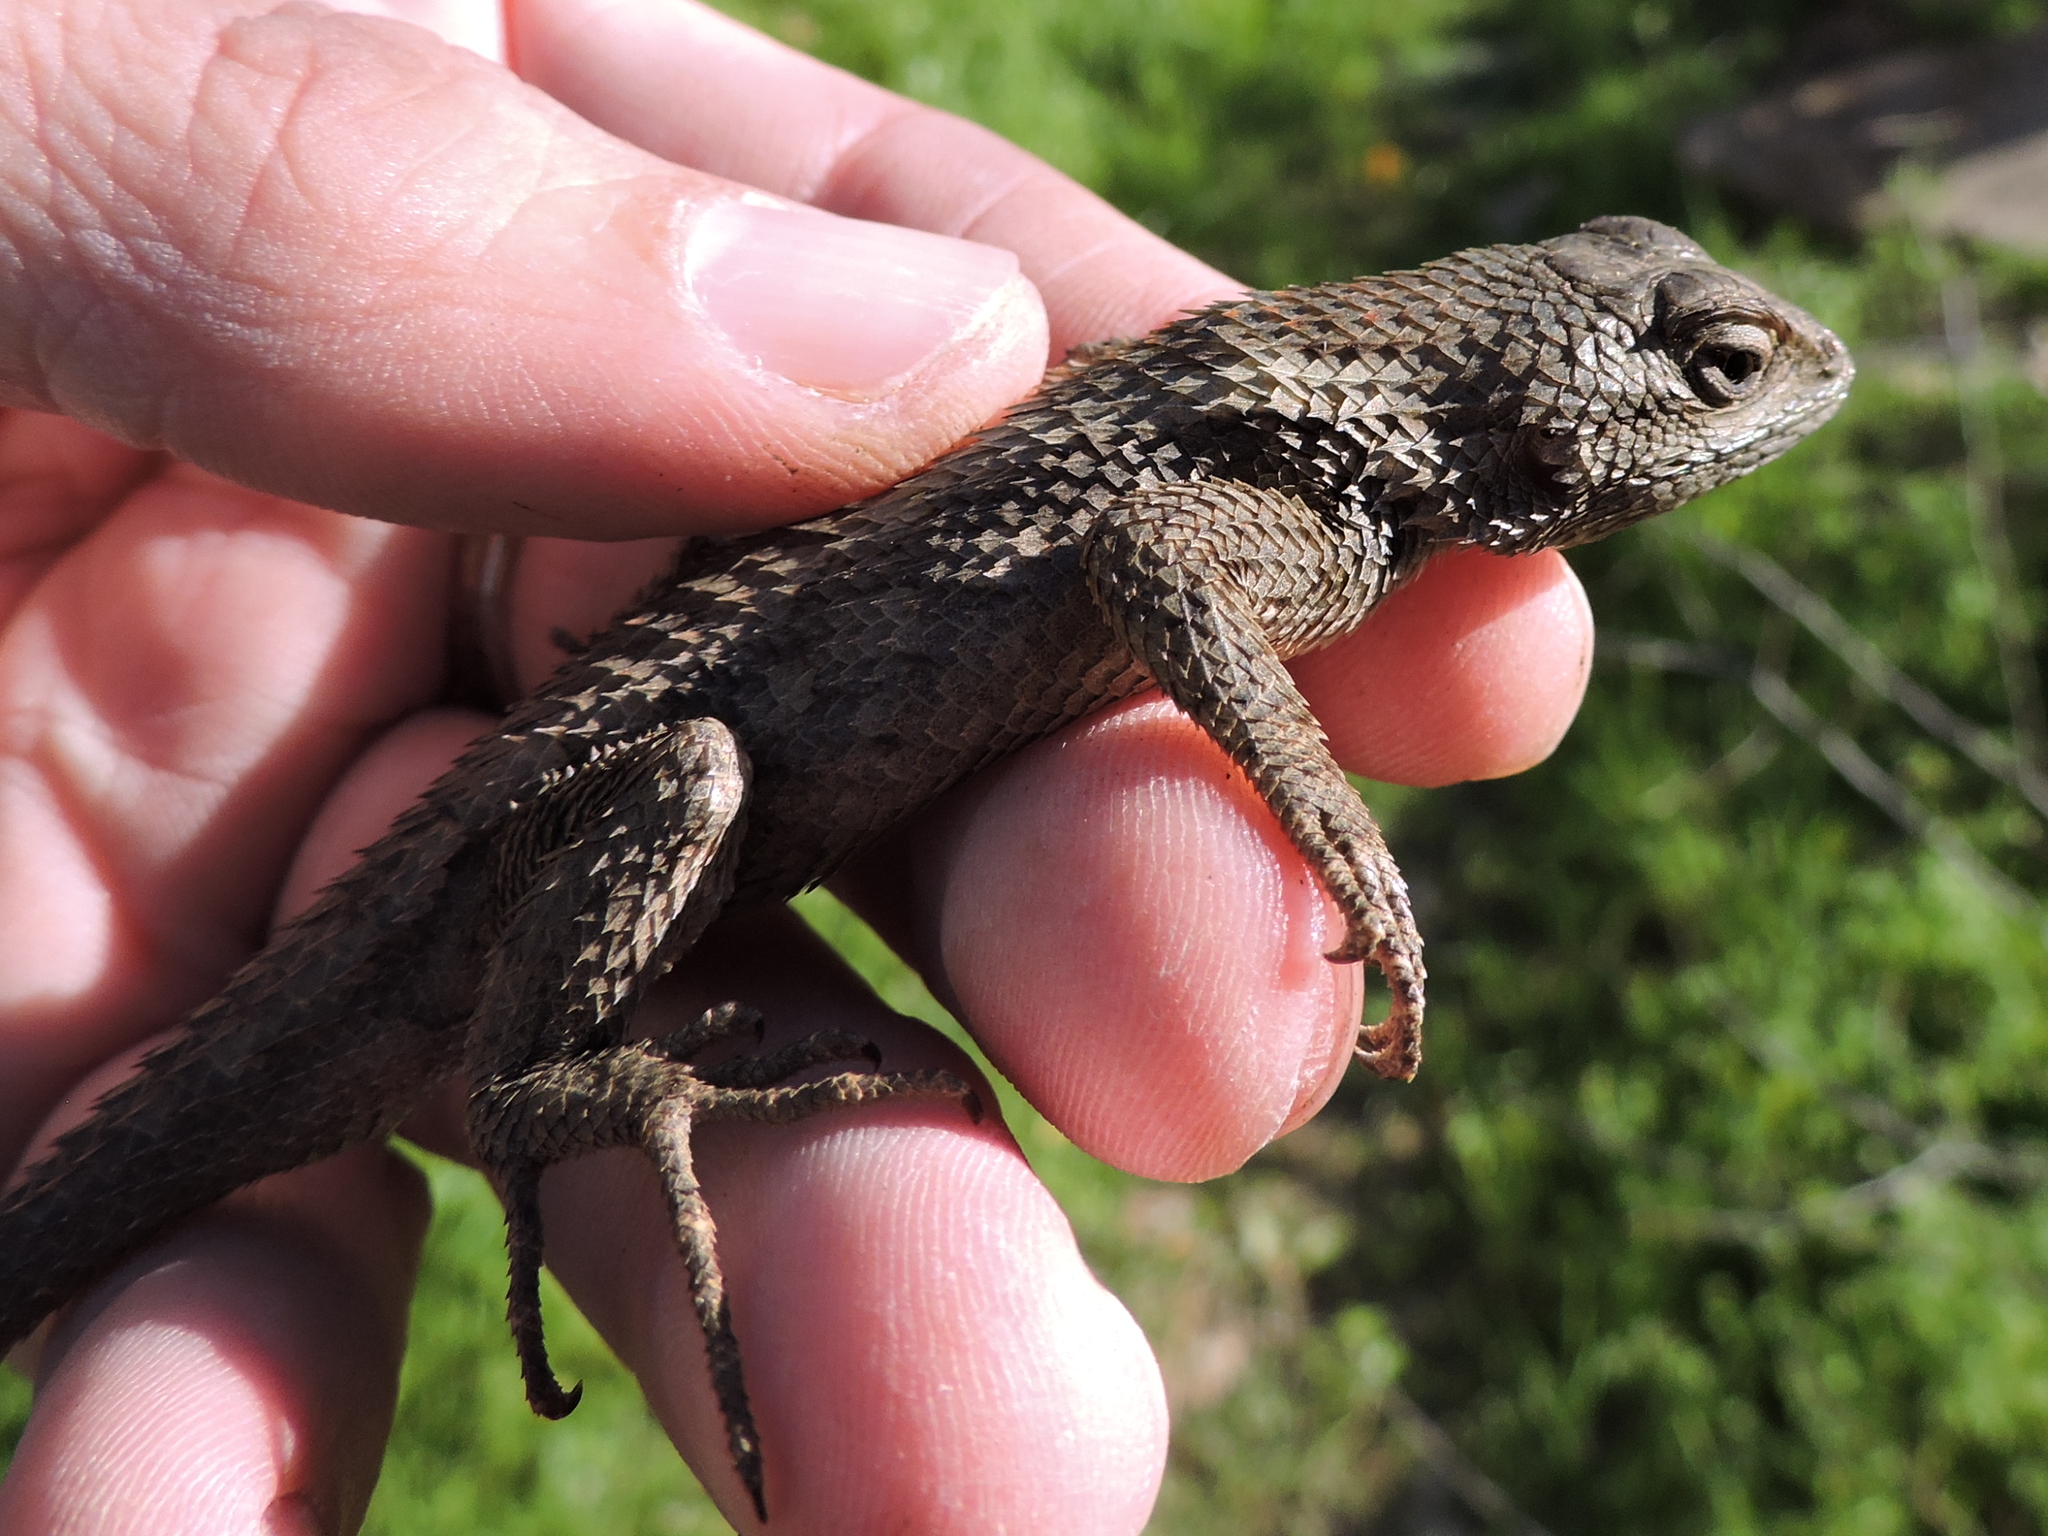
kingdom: Animalia
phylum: Chordata
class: Squamata
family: Phrynosomatidae
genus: Sceloporus
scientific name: Sceloporus olivaceus
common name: Texas spiny lizard
